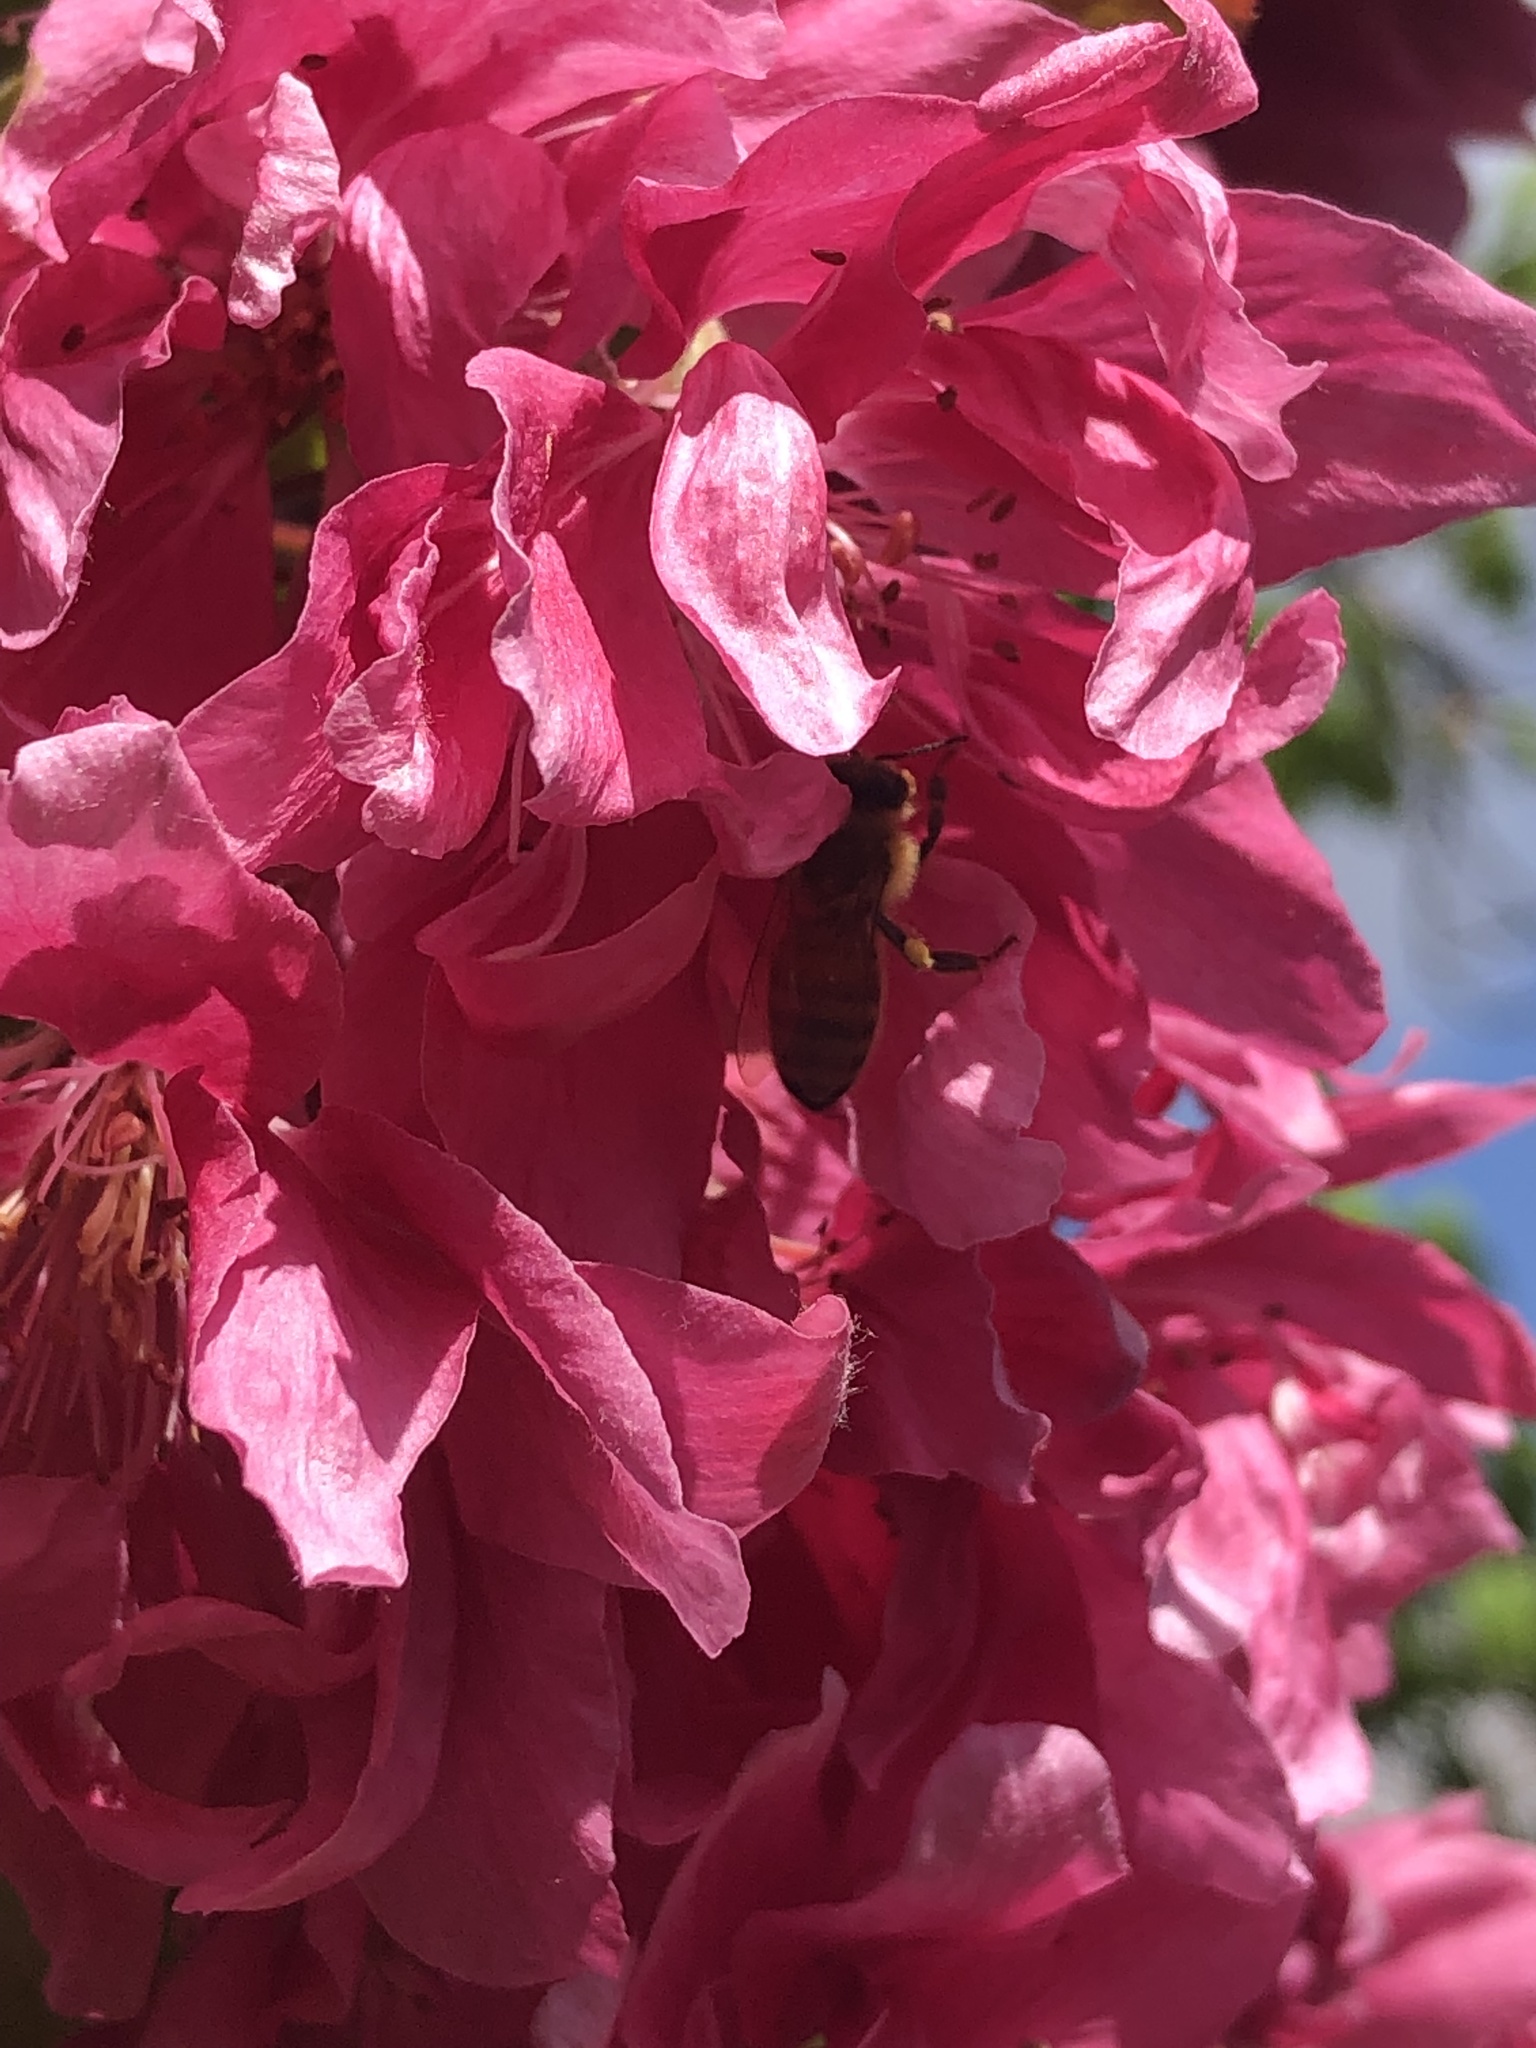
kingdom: Animalia
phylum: Arthropoda
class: Insecta
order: Hymenoptera
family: Apidae
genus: Apis
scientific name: Apis mellifera
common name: Honey bee
